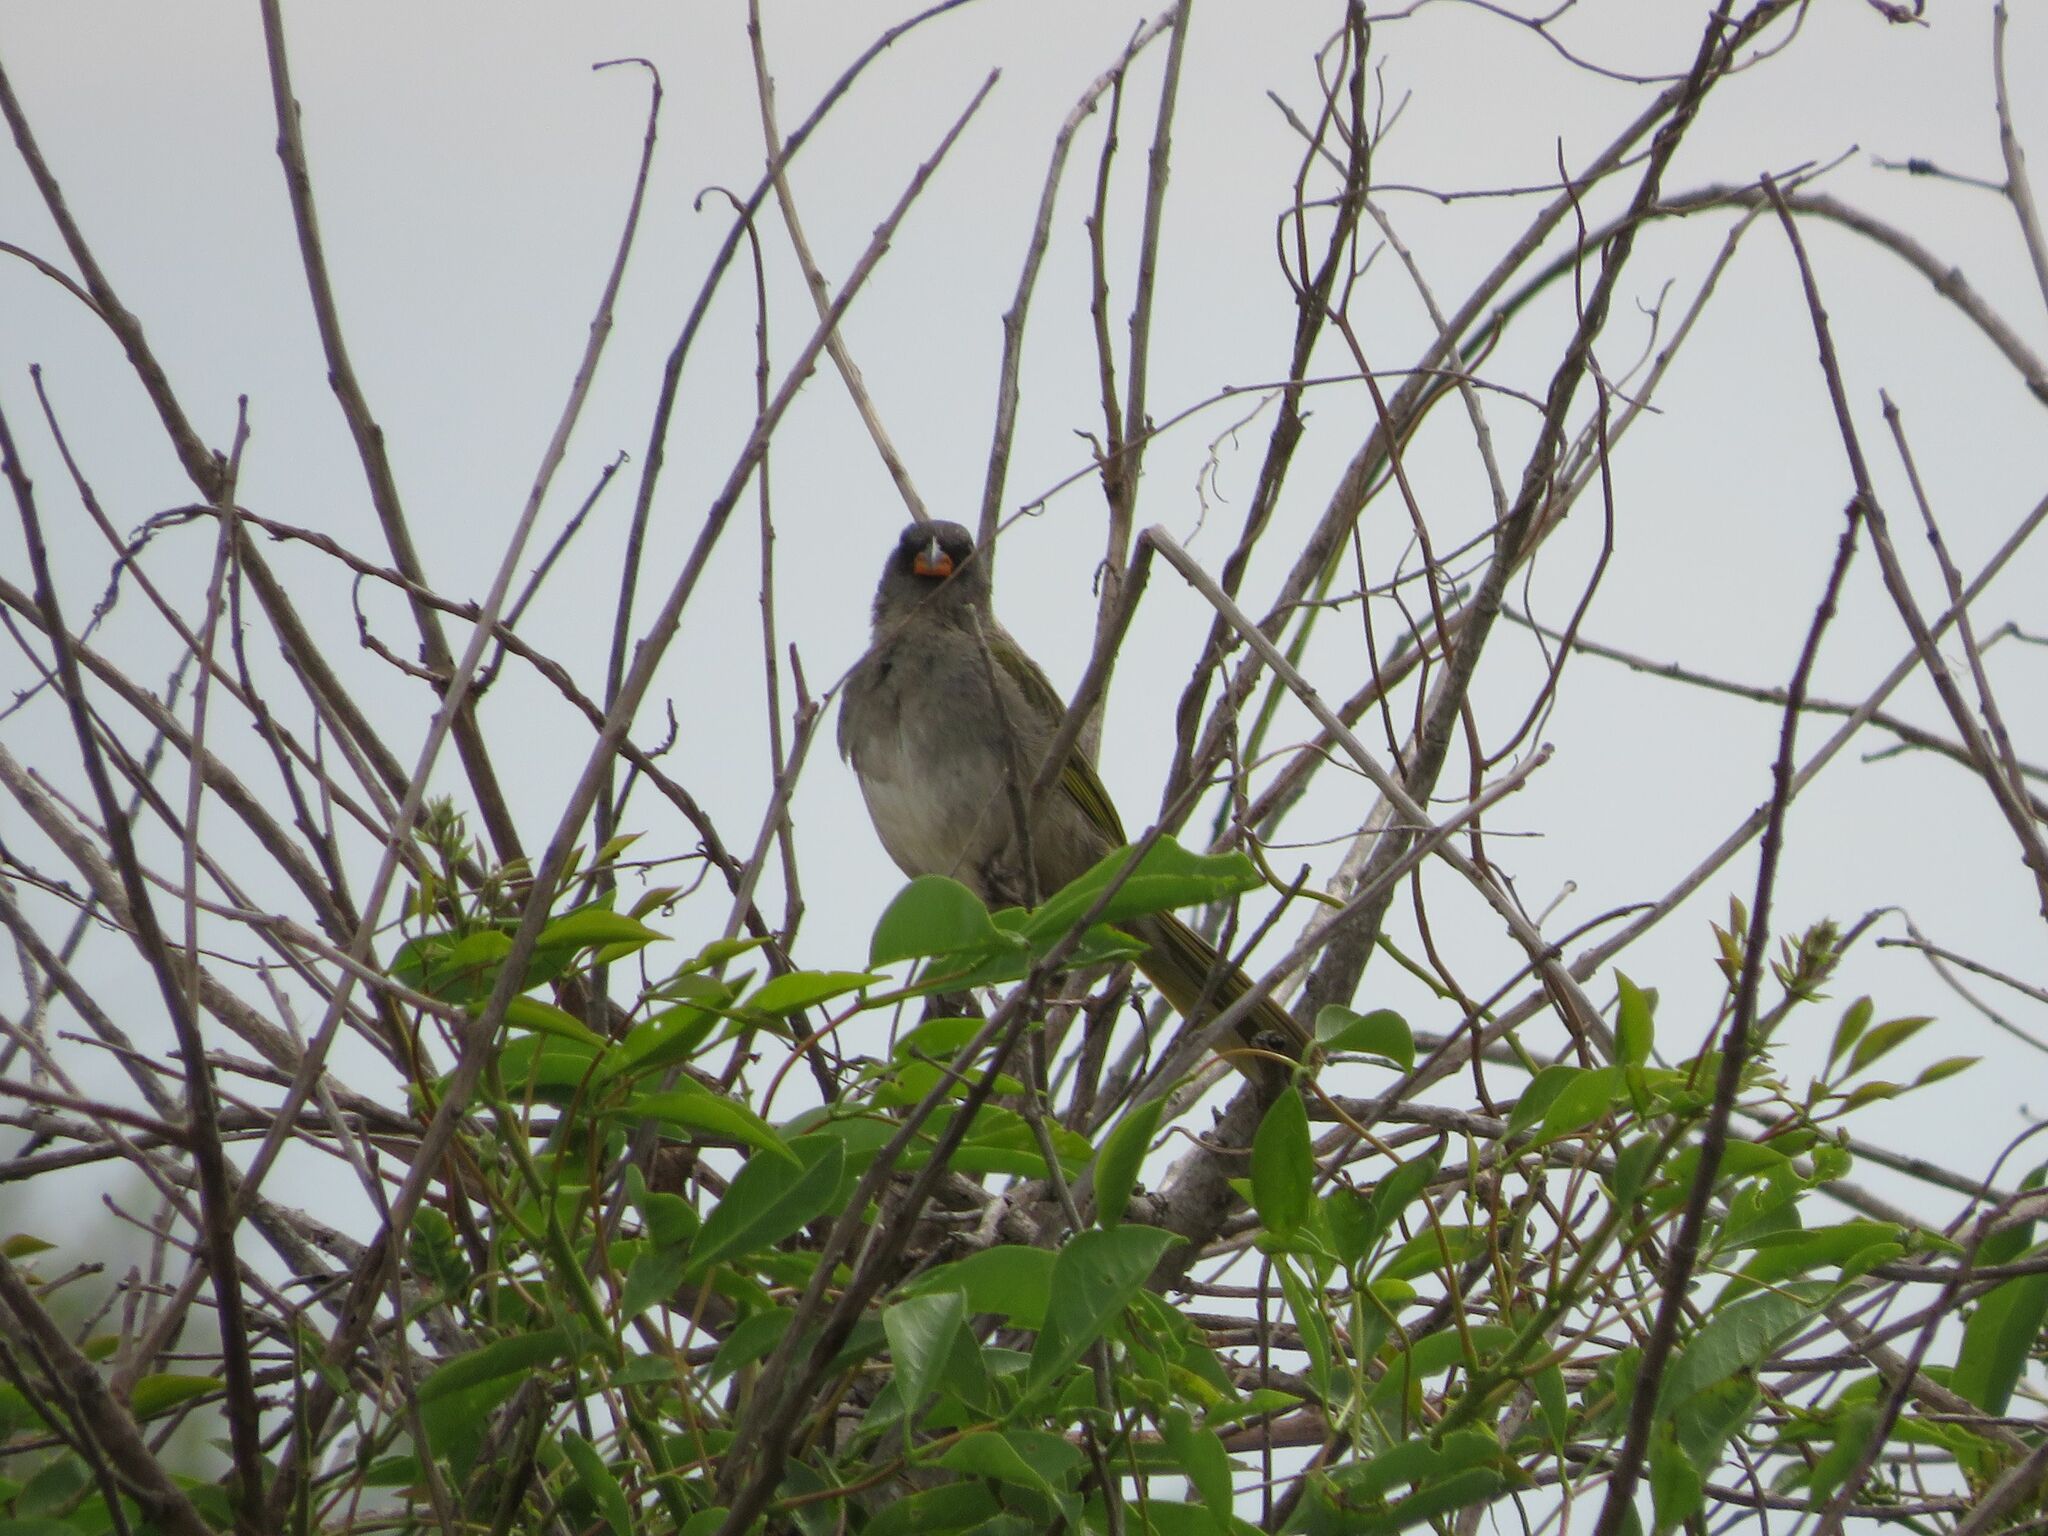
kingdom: Animalia
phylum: Chordata
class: Aves
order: Passeriformes
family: Thraupidae
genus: Embernagra
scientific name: Embernagra platensis
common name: Pampa finch
